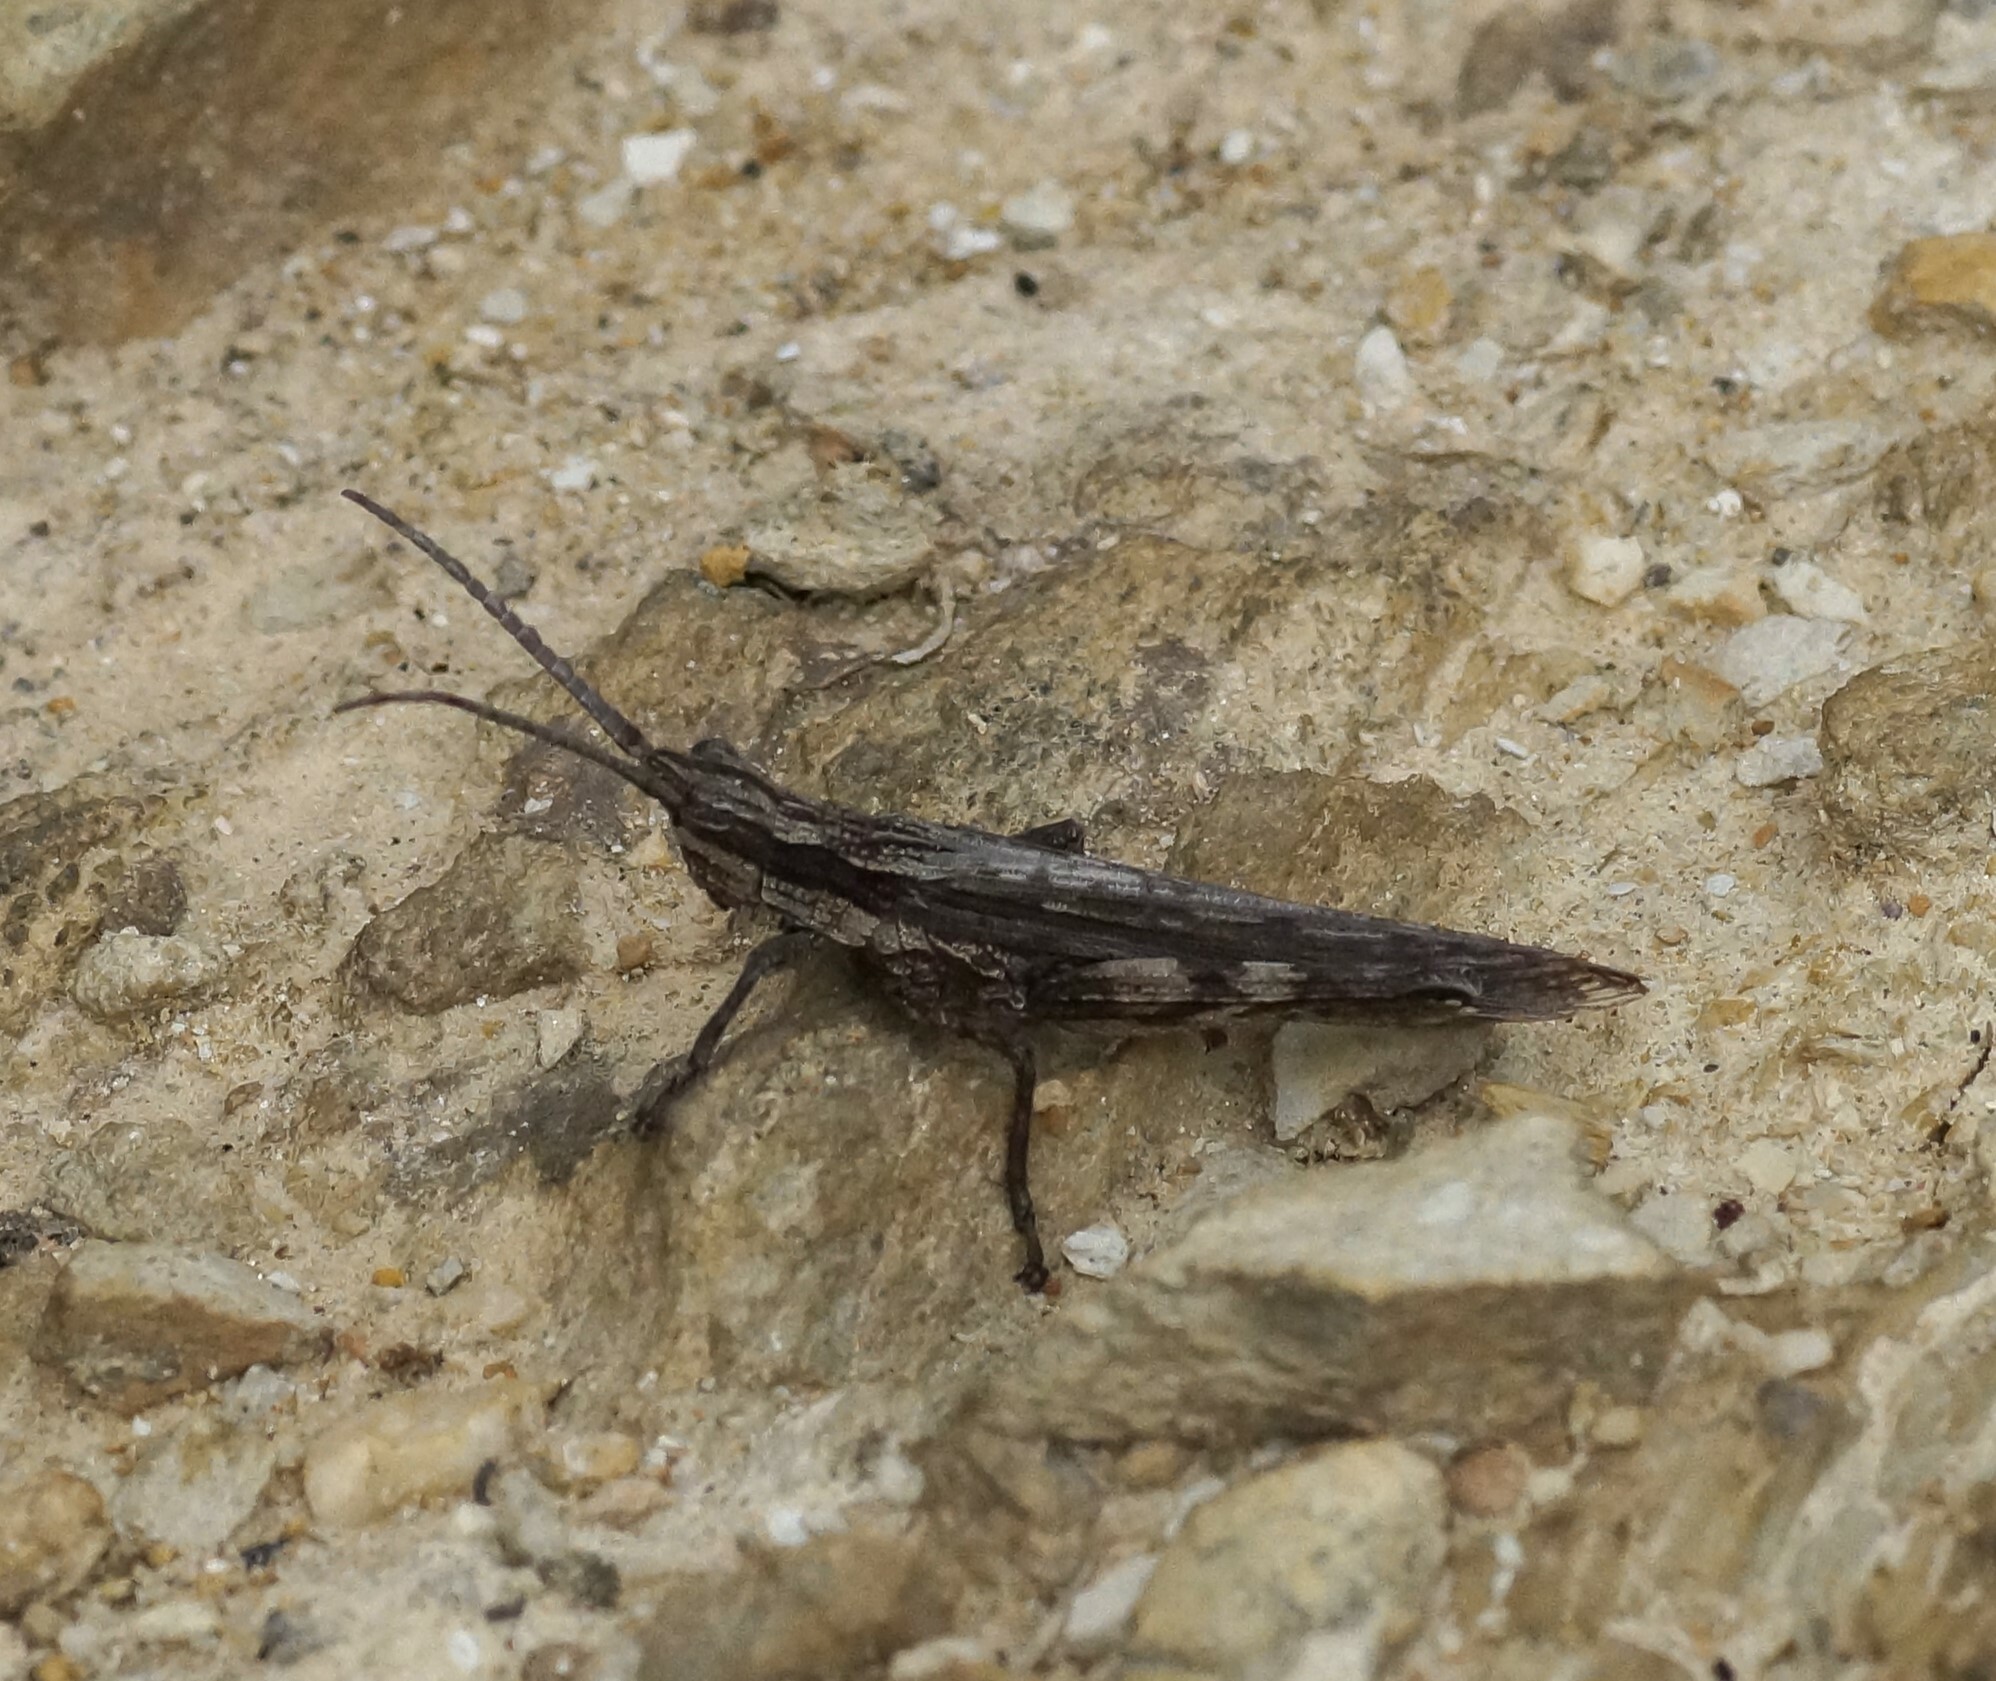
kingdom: Animalia
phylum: Arthropoda
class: Insecta
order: Orthoptera
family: Acrididae
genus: Coryphistes
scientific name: Coryphistes ruricola
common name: Bark-mimicking grasshopper
